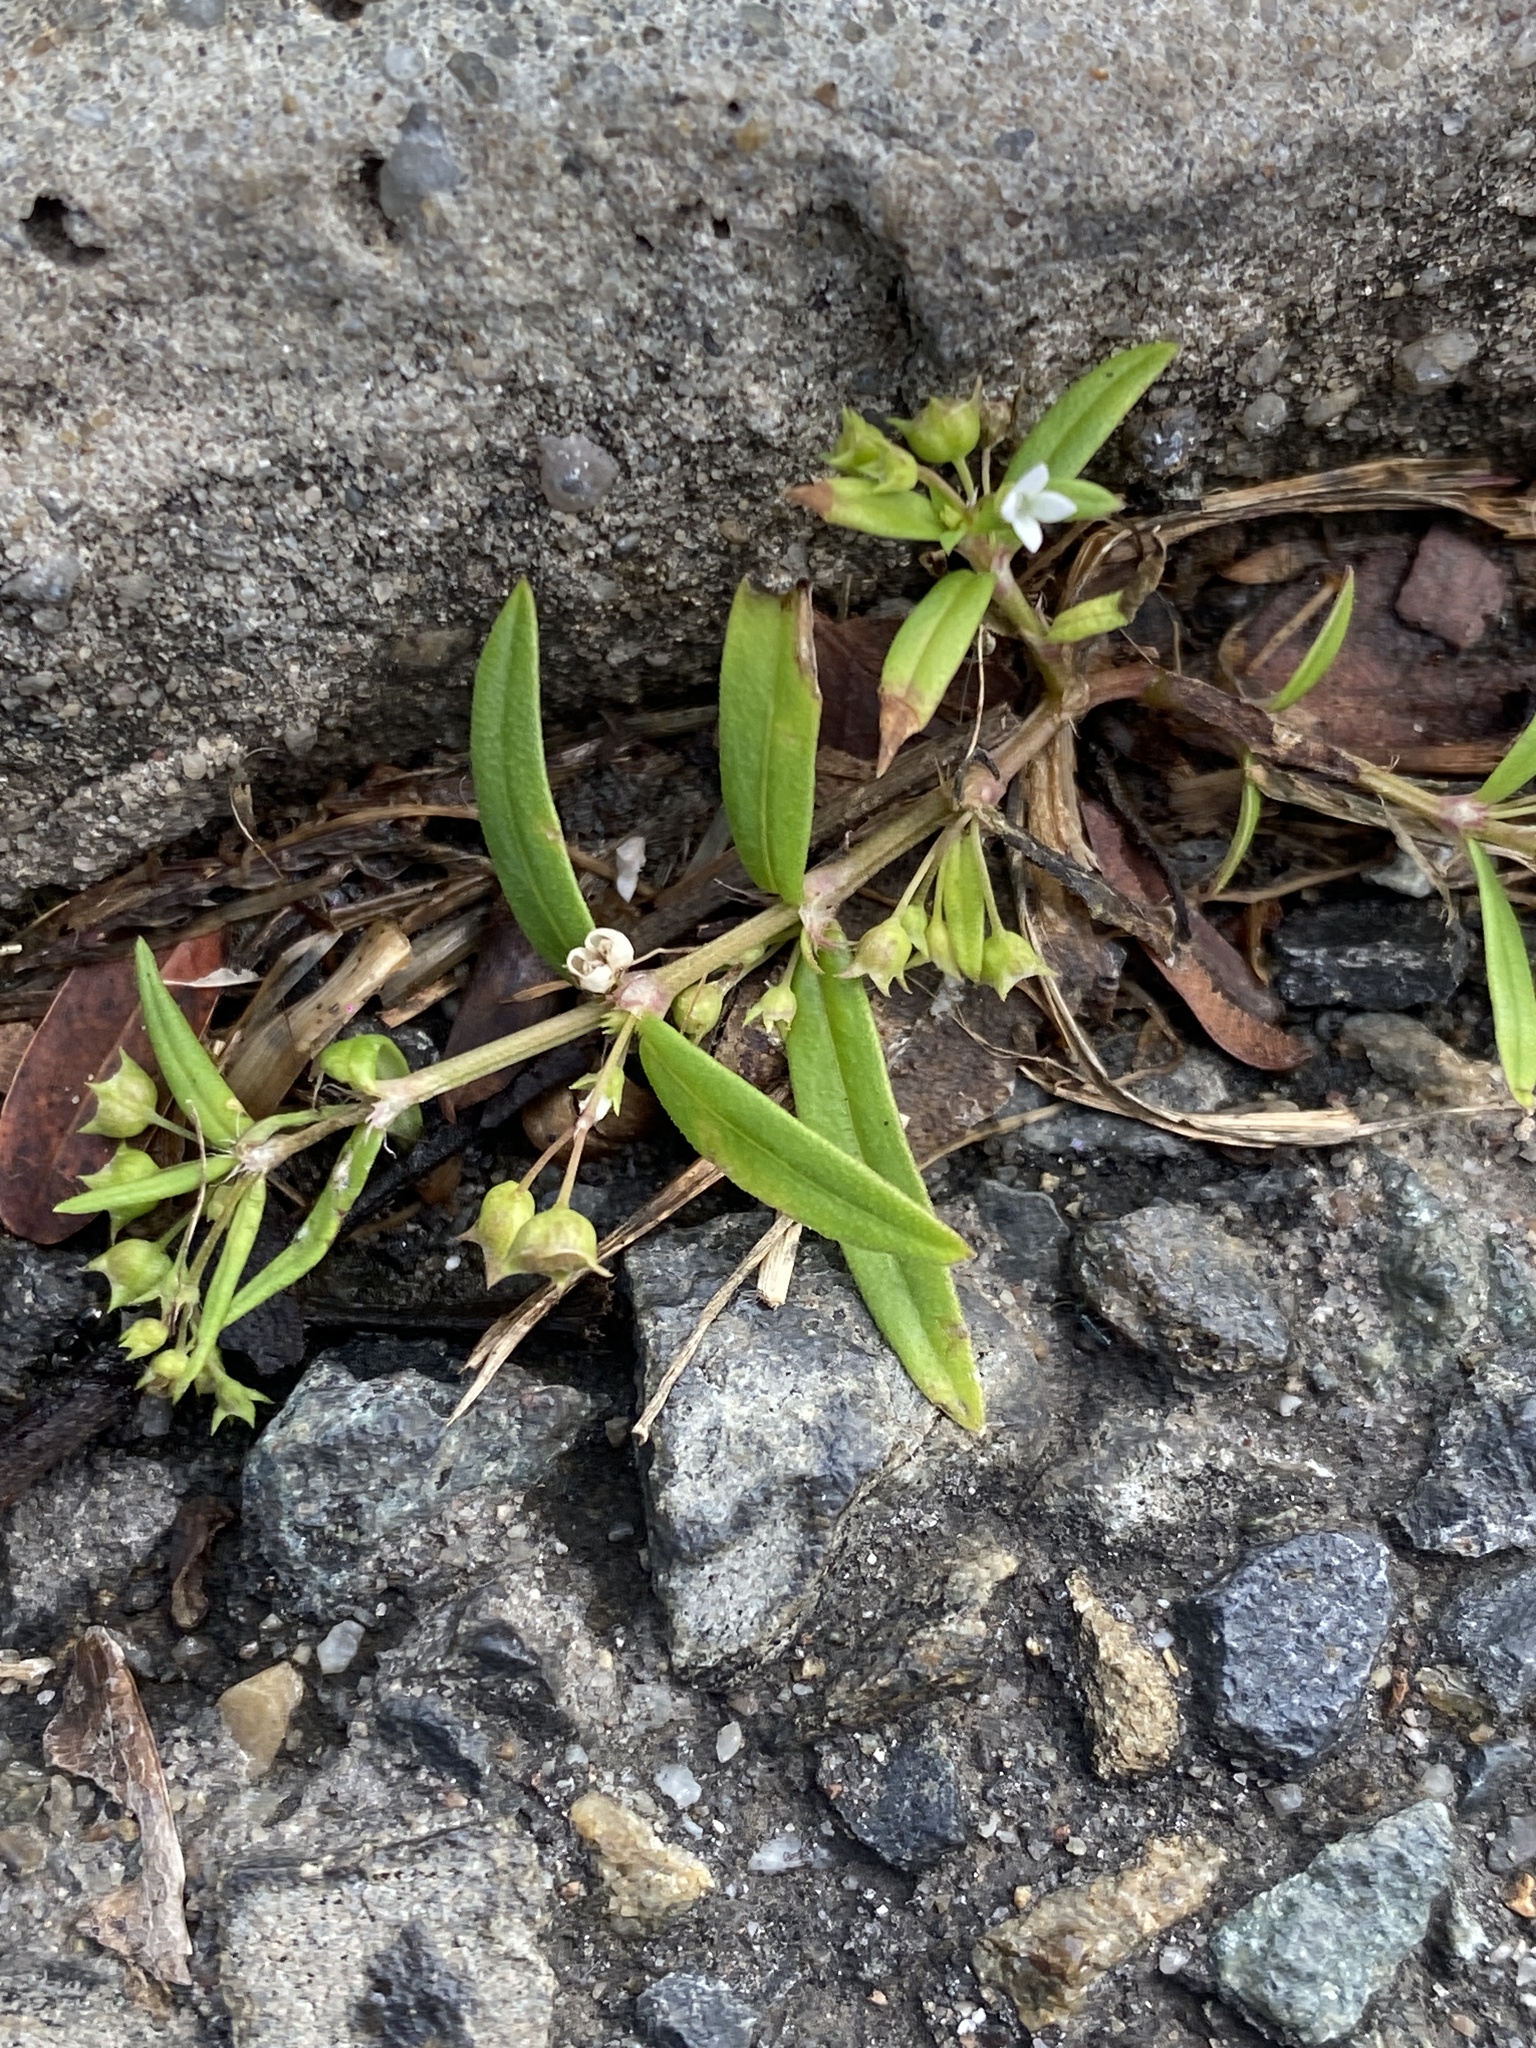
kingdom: Plantae
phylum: Tracheophyta
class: Magnoliopsida
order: Gentianales
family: Rubiaceae
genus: Oldenlandia
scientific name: Oldenlandia corymbosa
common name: Flat-top mille graines
